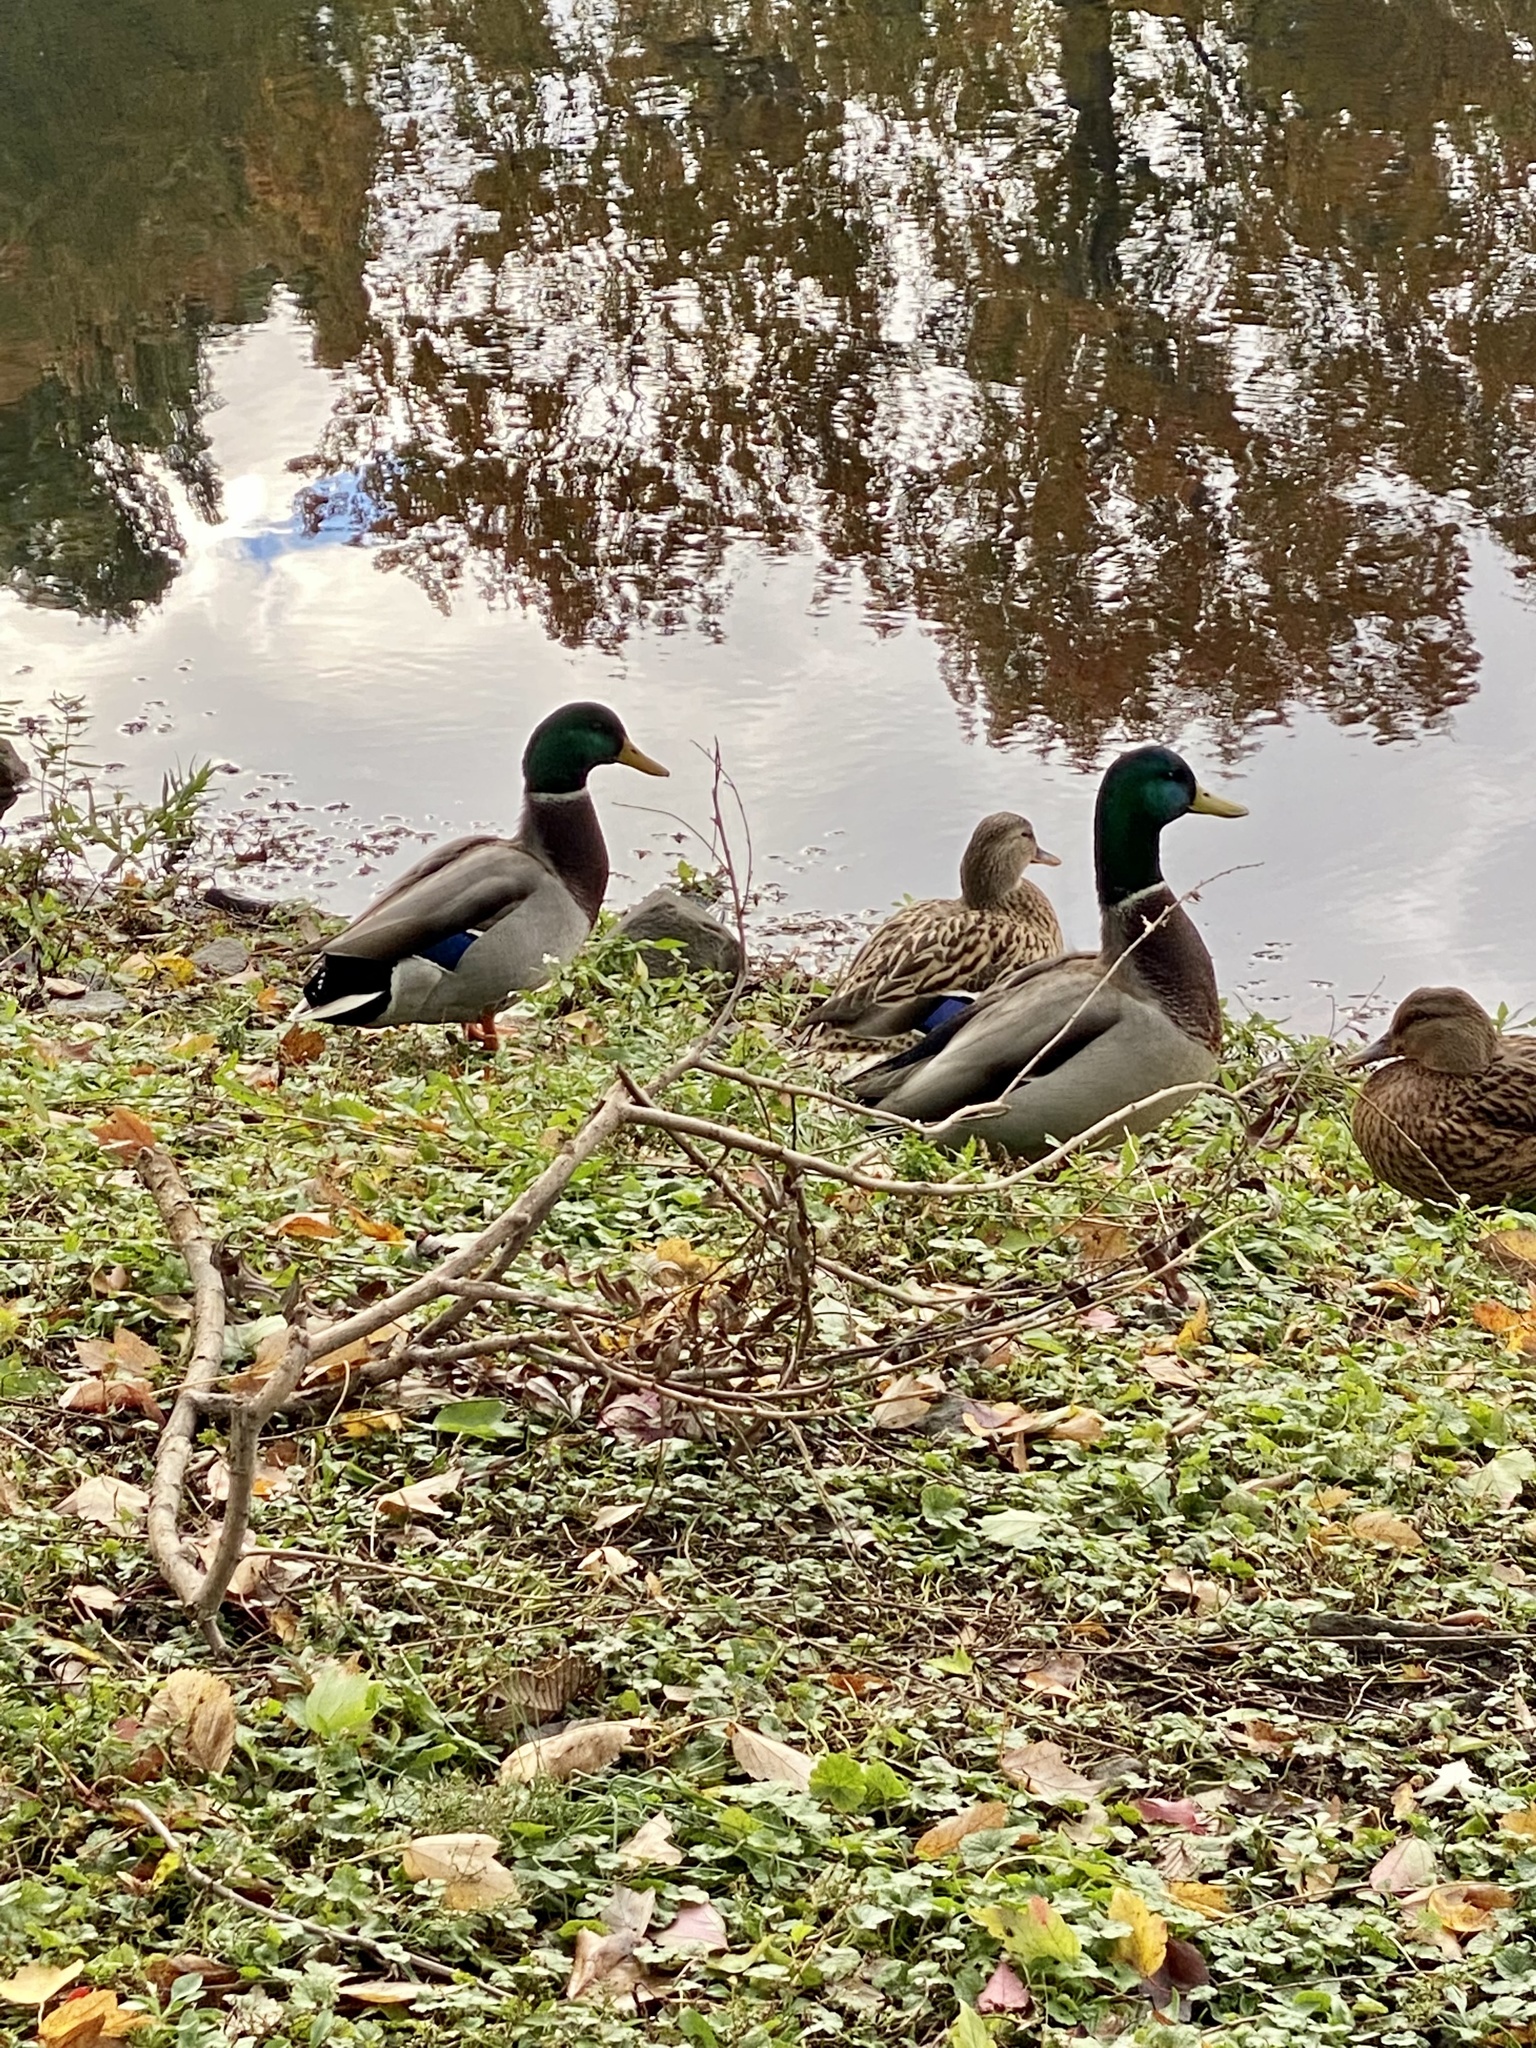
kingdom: Animalia
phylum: Chordata
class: Aves
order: Anseriformes
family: Anatidae
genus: Anas
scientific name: Anas platyrhynchos
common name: Mallard
